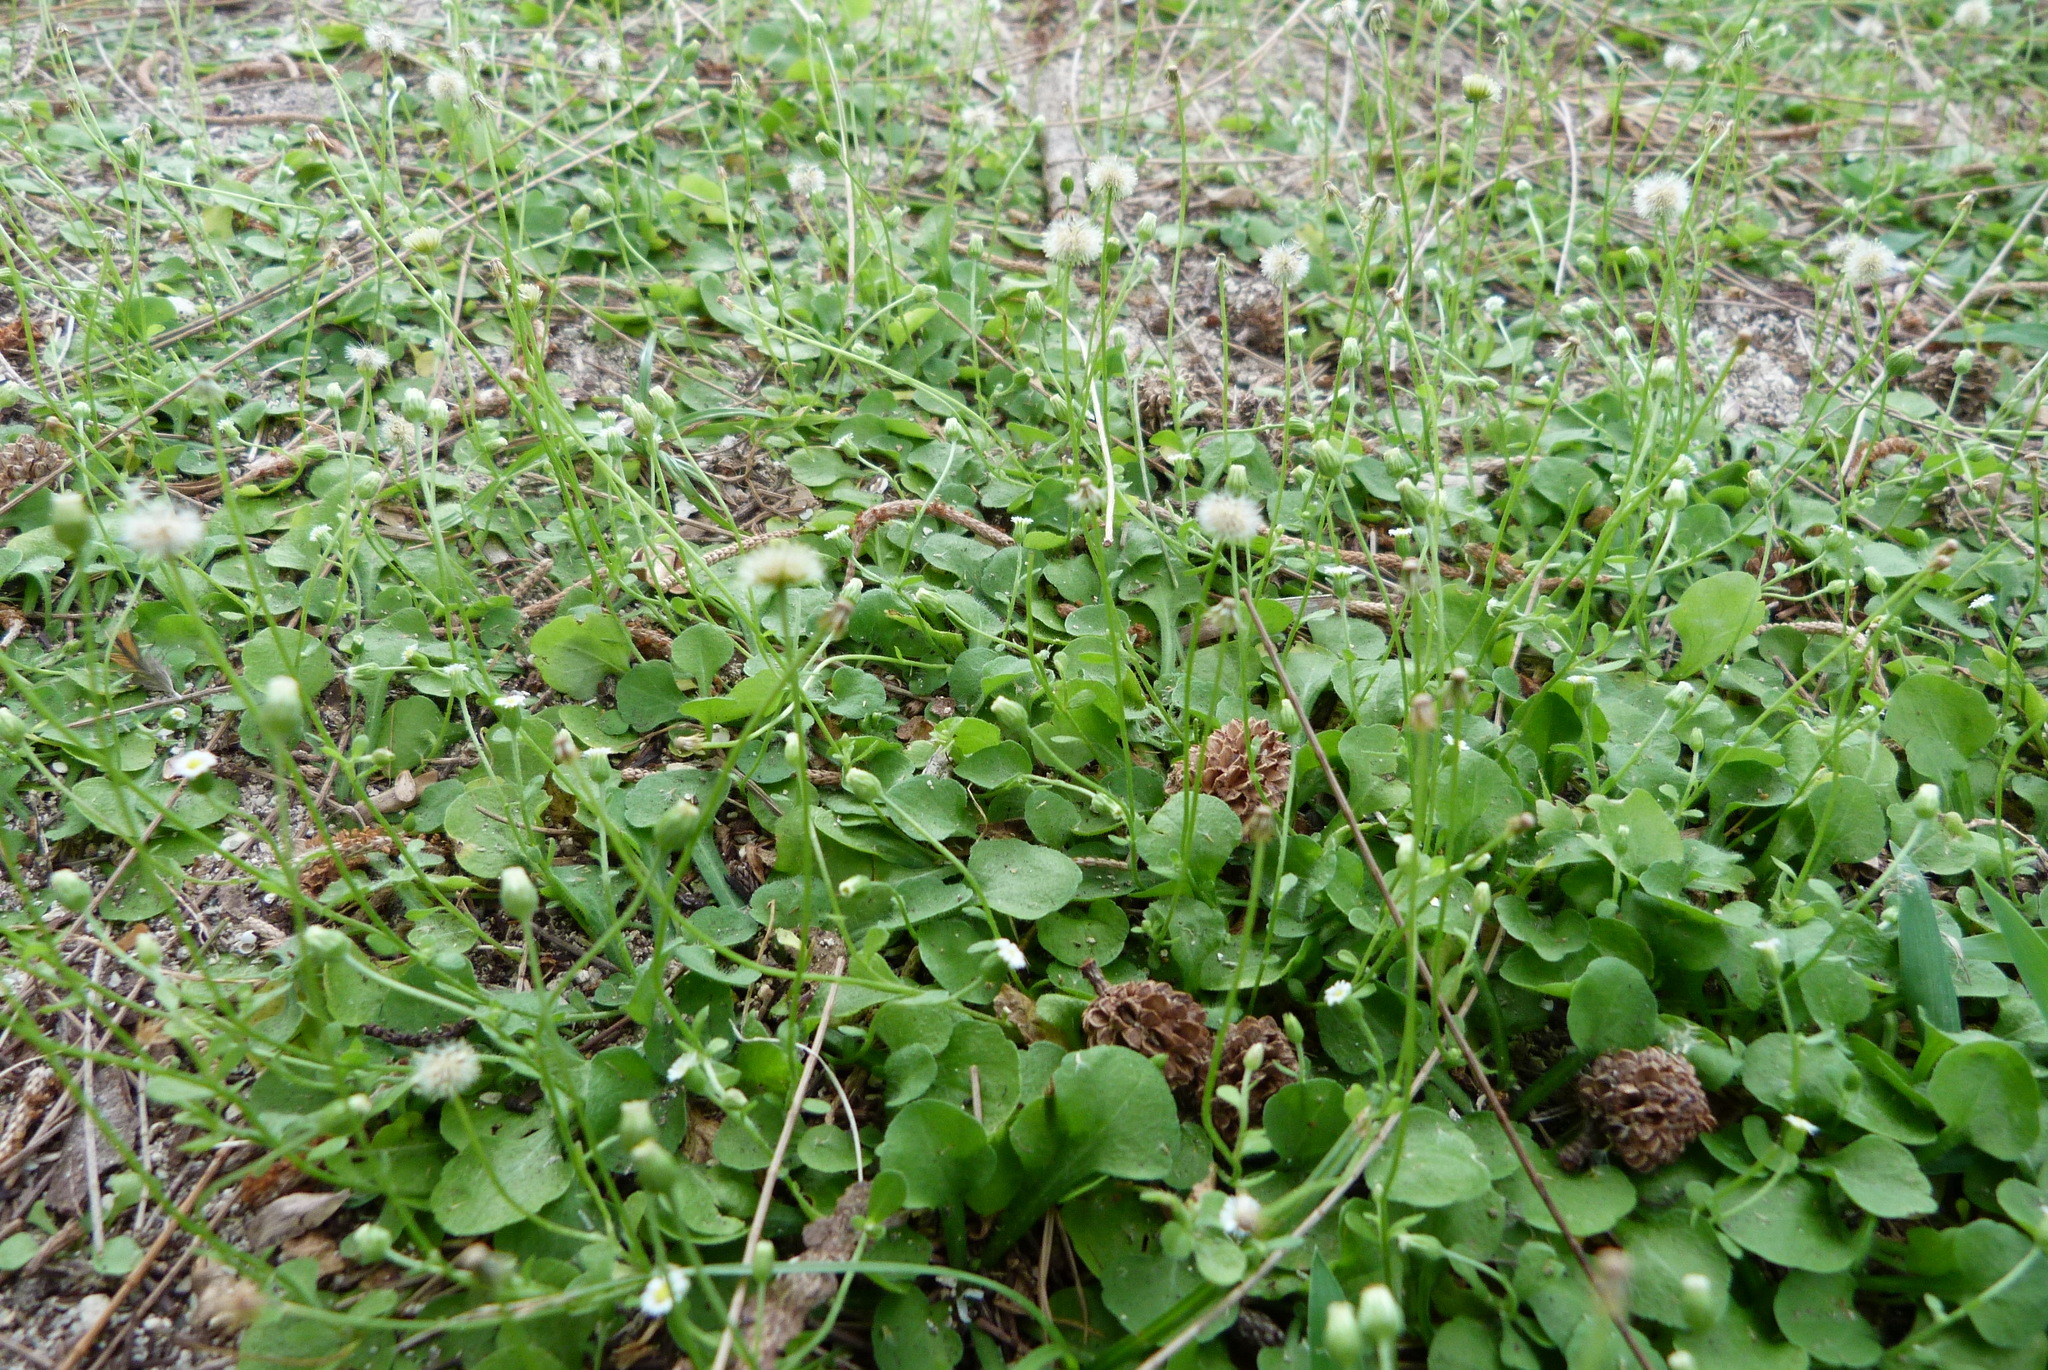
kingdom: Plantae
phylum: Tracheophyta
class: Magnoliopsida
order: Asterales
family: Asteraceae
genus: Erigeron
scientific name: Erigeron bellioides
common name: Bellorita
